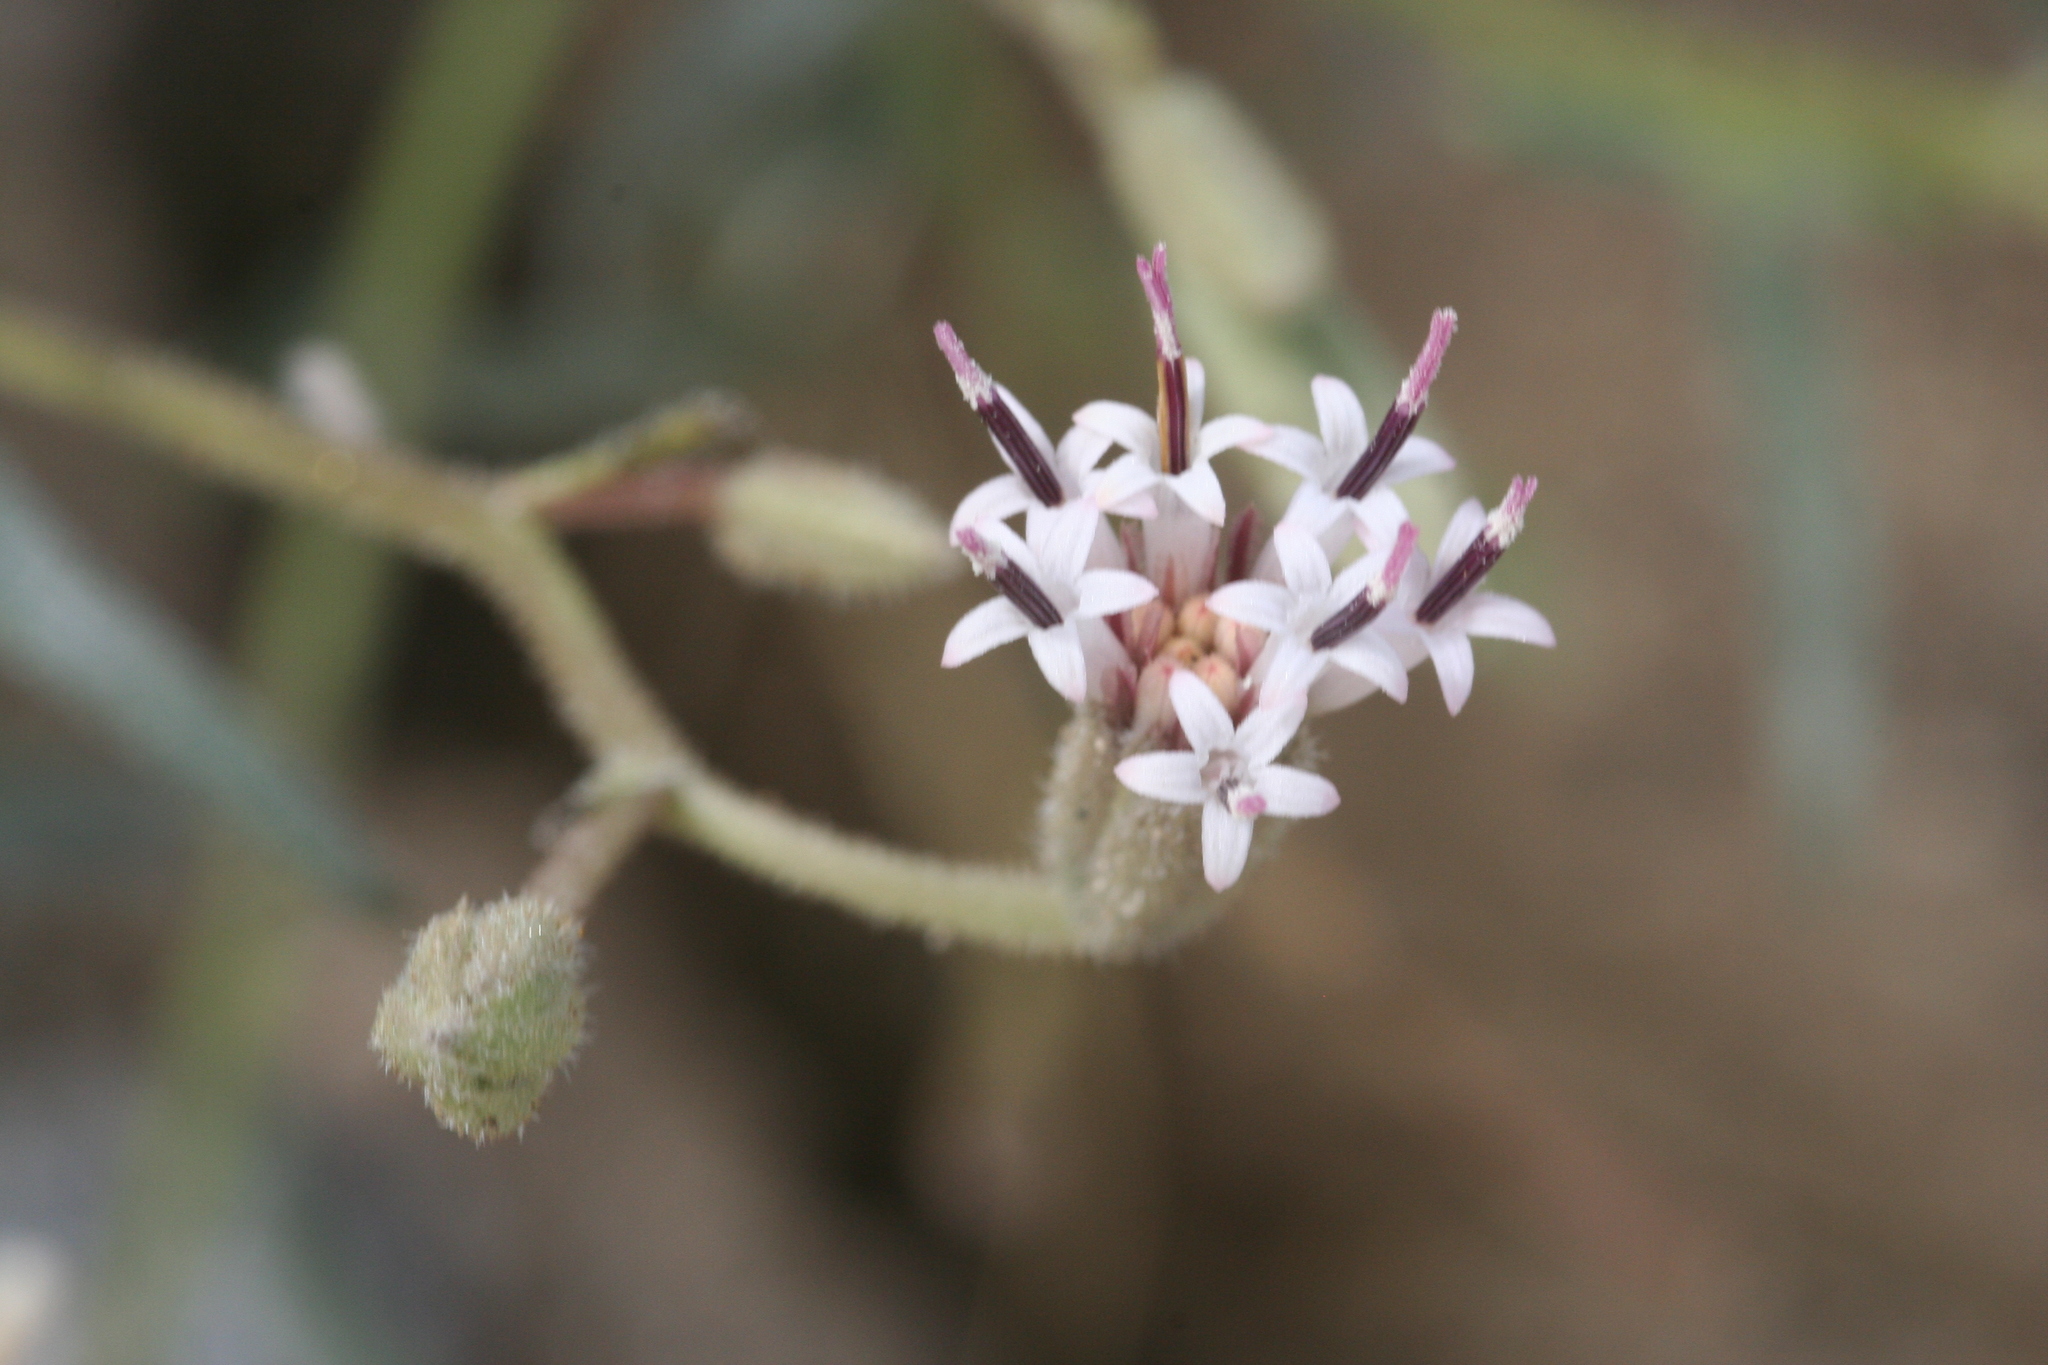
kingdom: Plantae
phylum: Tracheophyta
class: Magnoliopsida
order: Asterales
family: Asteraceae
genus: Palafoxia
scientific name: Palafoxia arida
